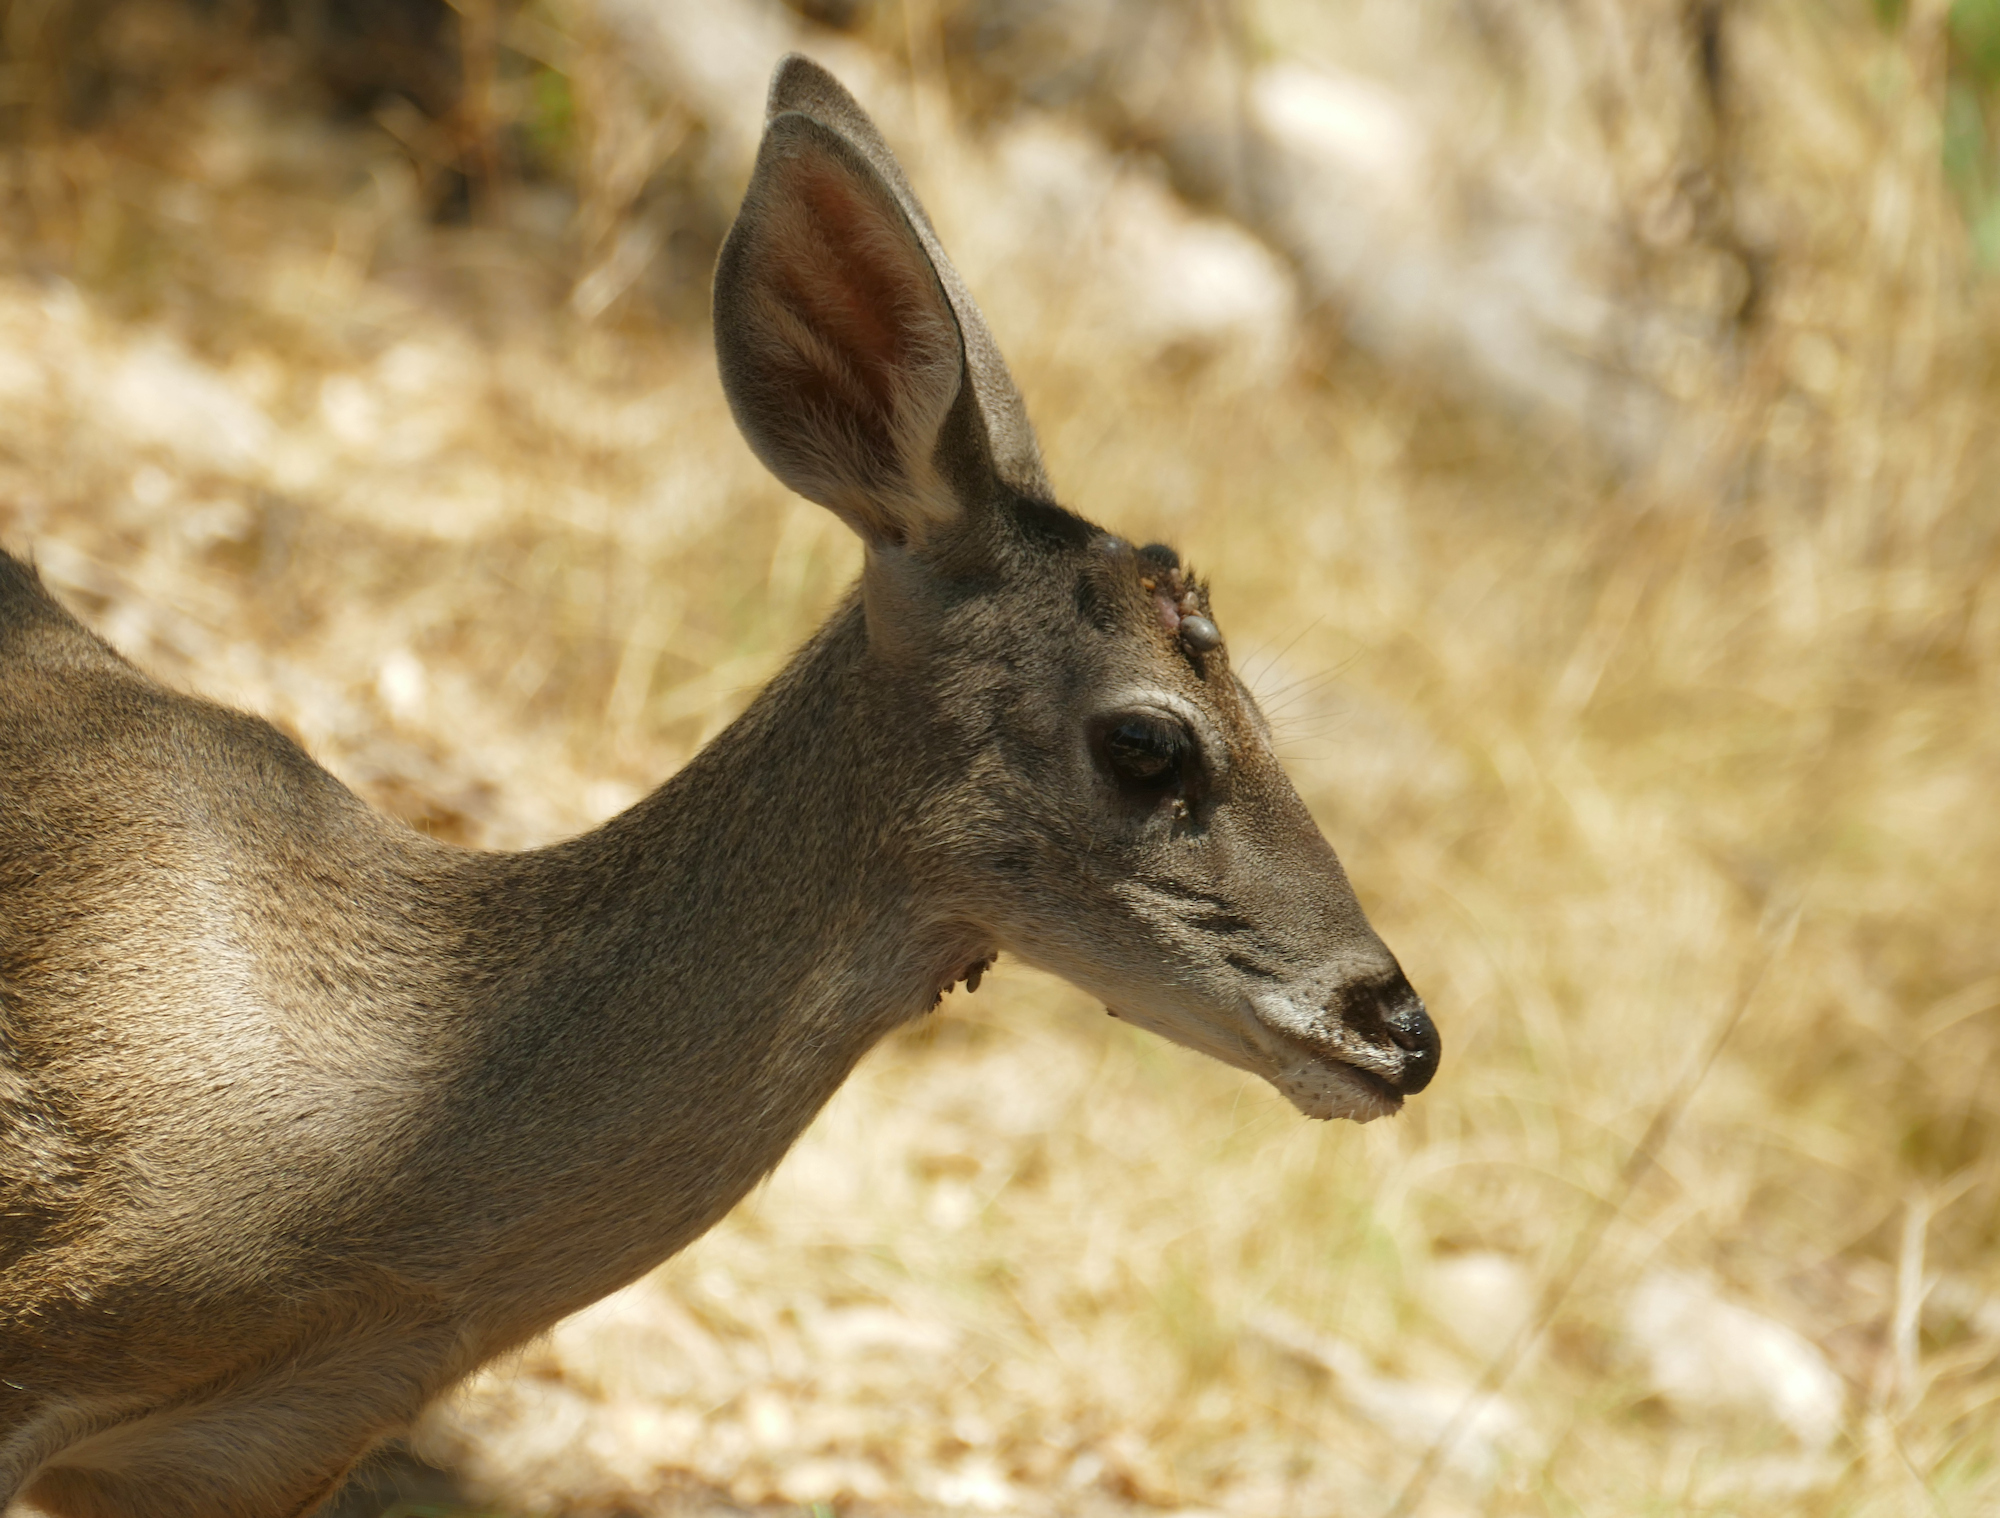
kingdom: Animalia
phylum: Chordata
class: Mammalia
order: Artiodactyla
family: Cervidae
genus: Odocoileus
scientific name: Odocoileus virginianus
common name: White-tailed deer
